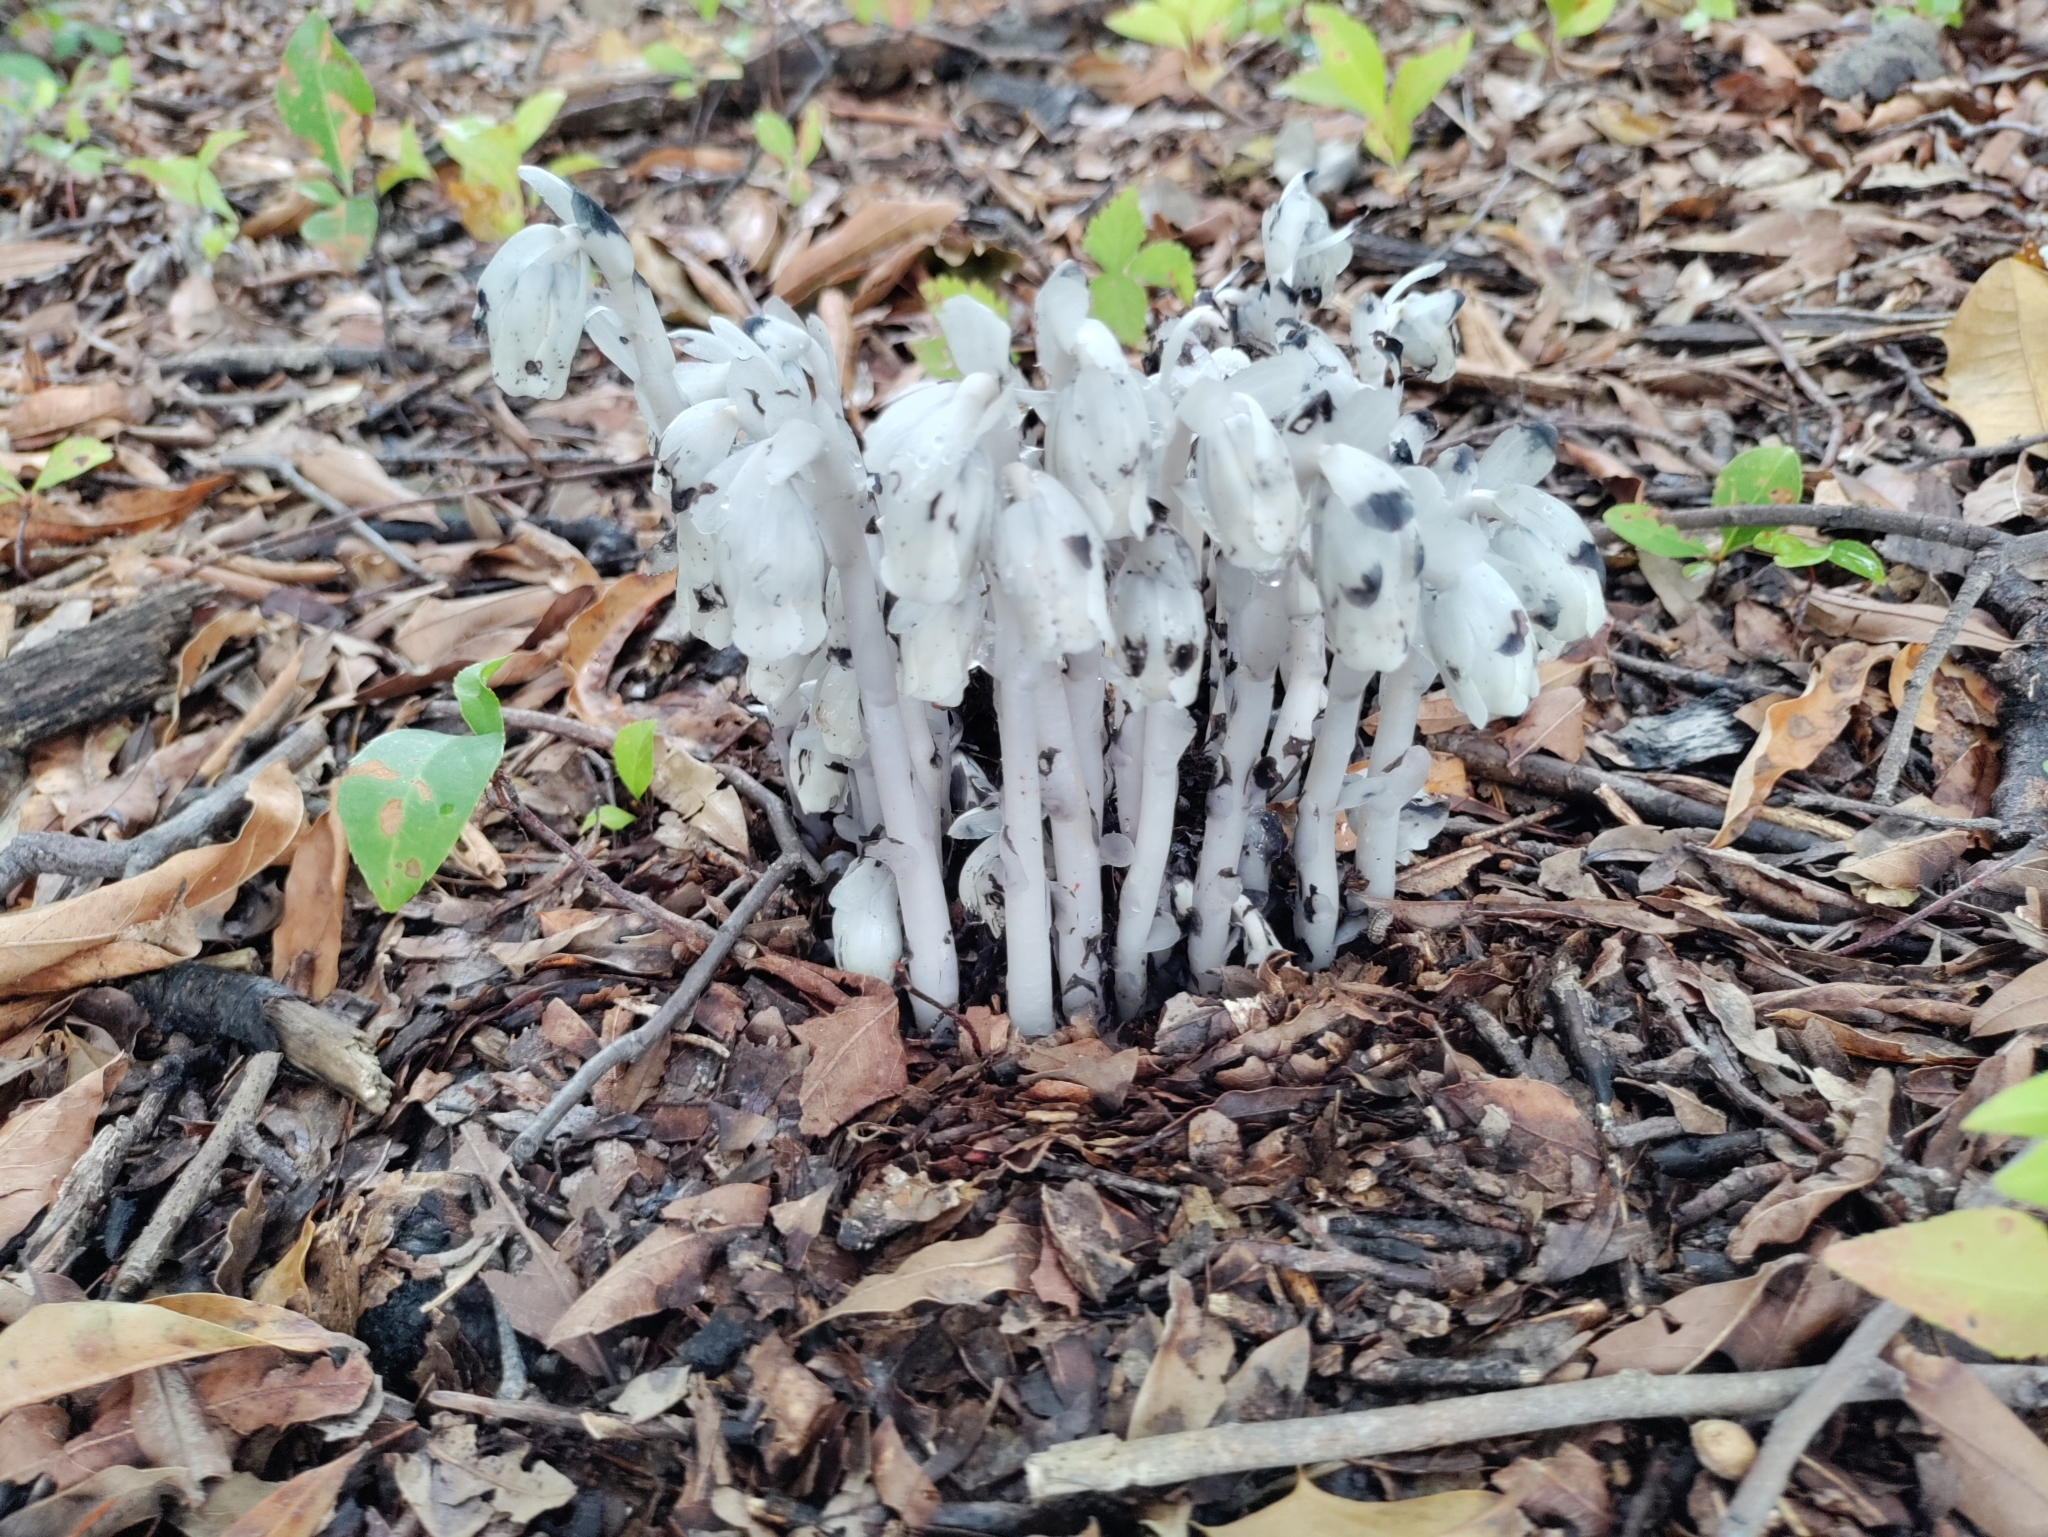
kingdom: Plantae
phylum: Tracheophyta
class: Magnoliopsida
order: Ericales
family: Ericaceae
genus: Monotropa
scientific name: Monotropa uniflora
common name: Convulsion root
